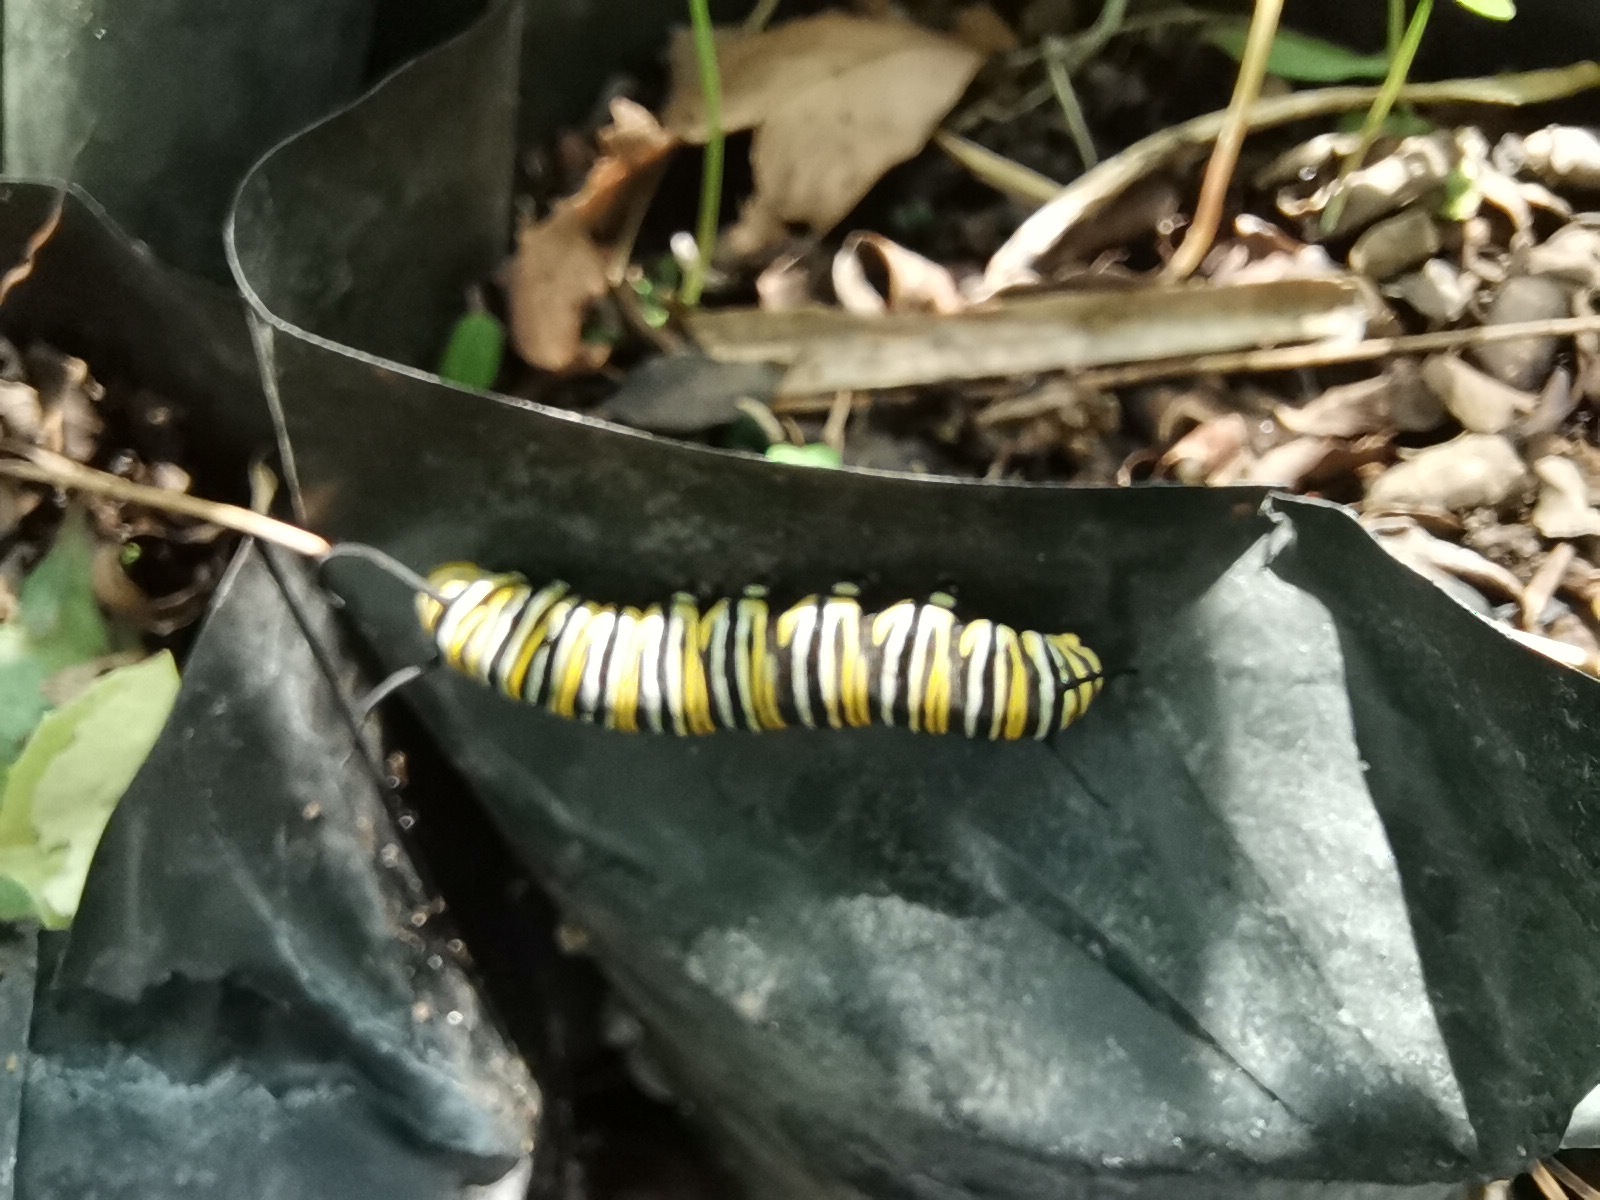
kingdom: Animalia
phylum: Arthropoda
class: Insecta
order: Lepidoptera
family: Nymphalidae
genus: Danaus
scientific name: Danaus plexippus
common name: Monarch
